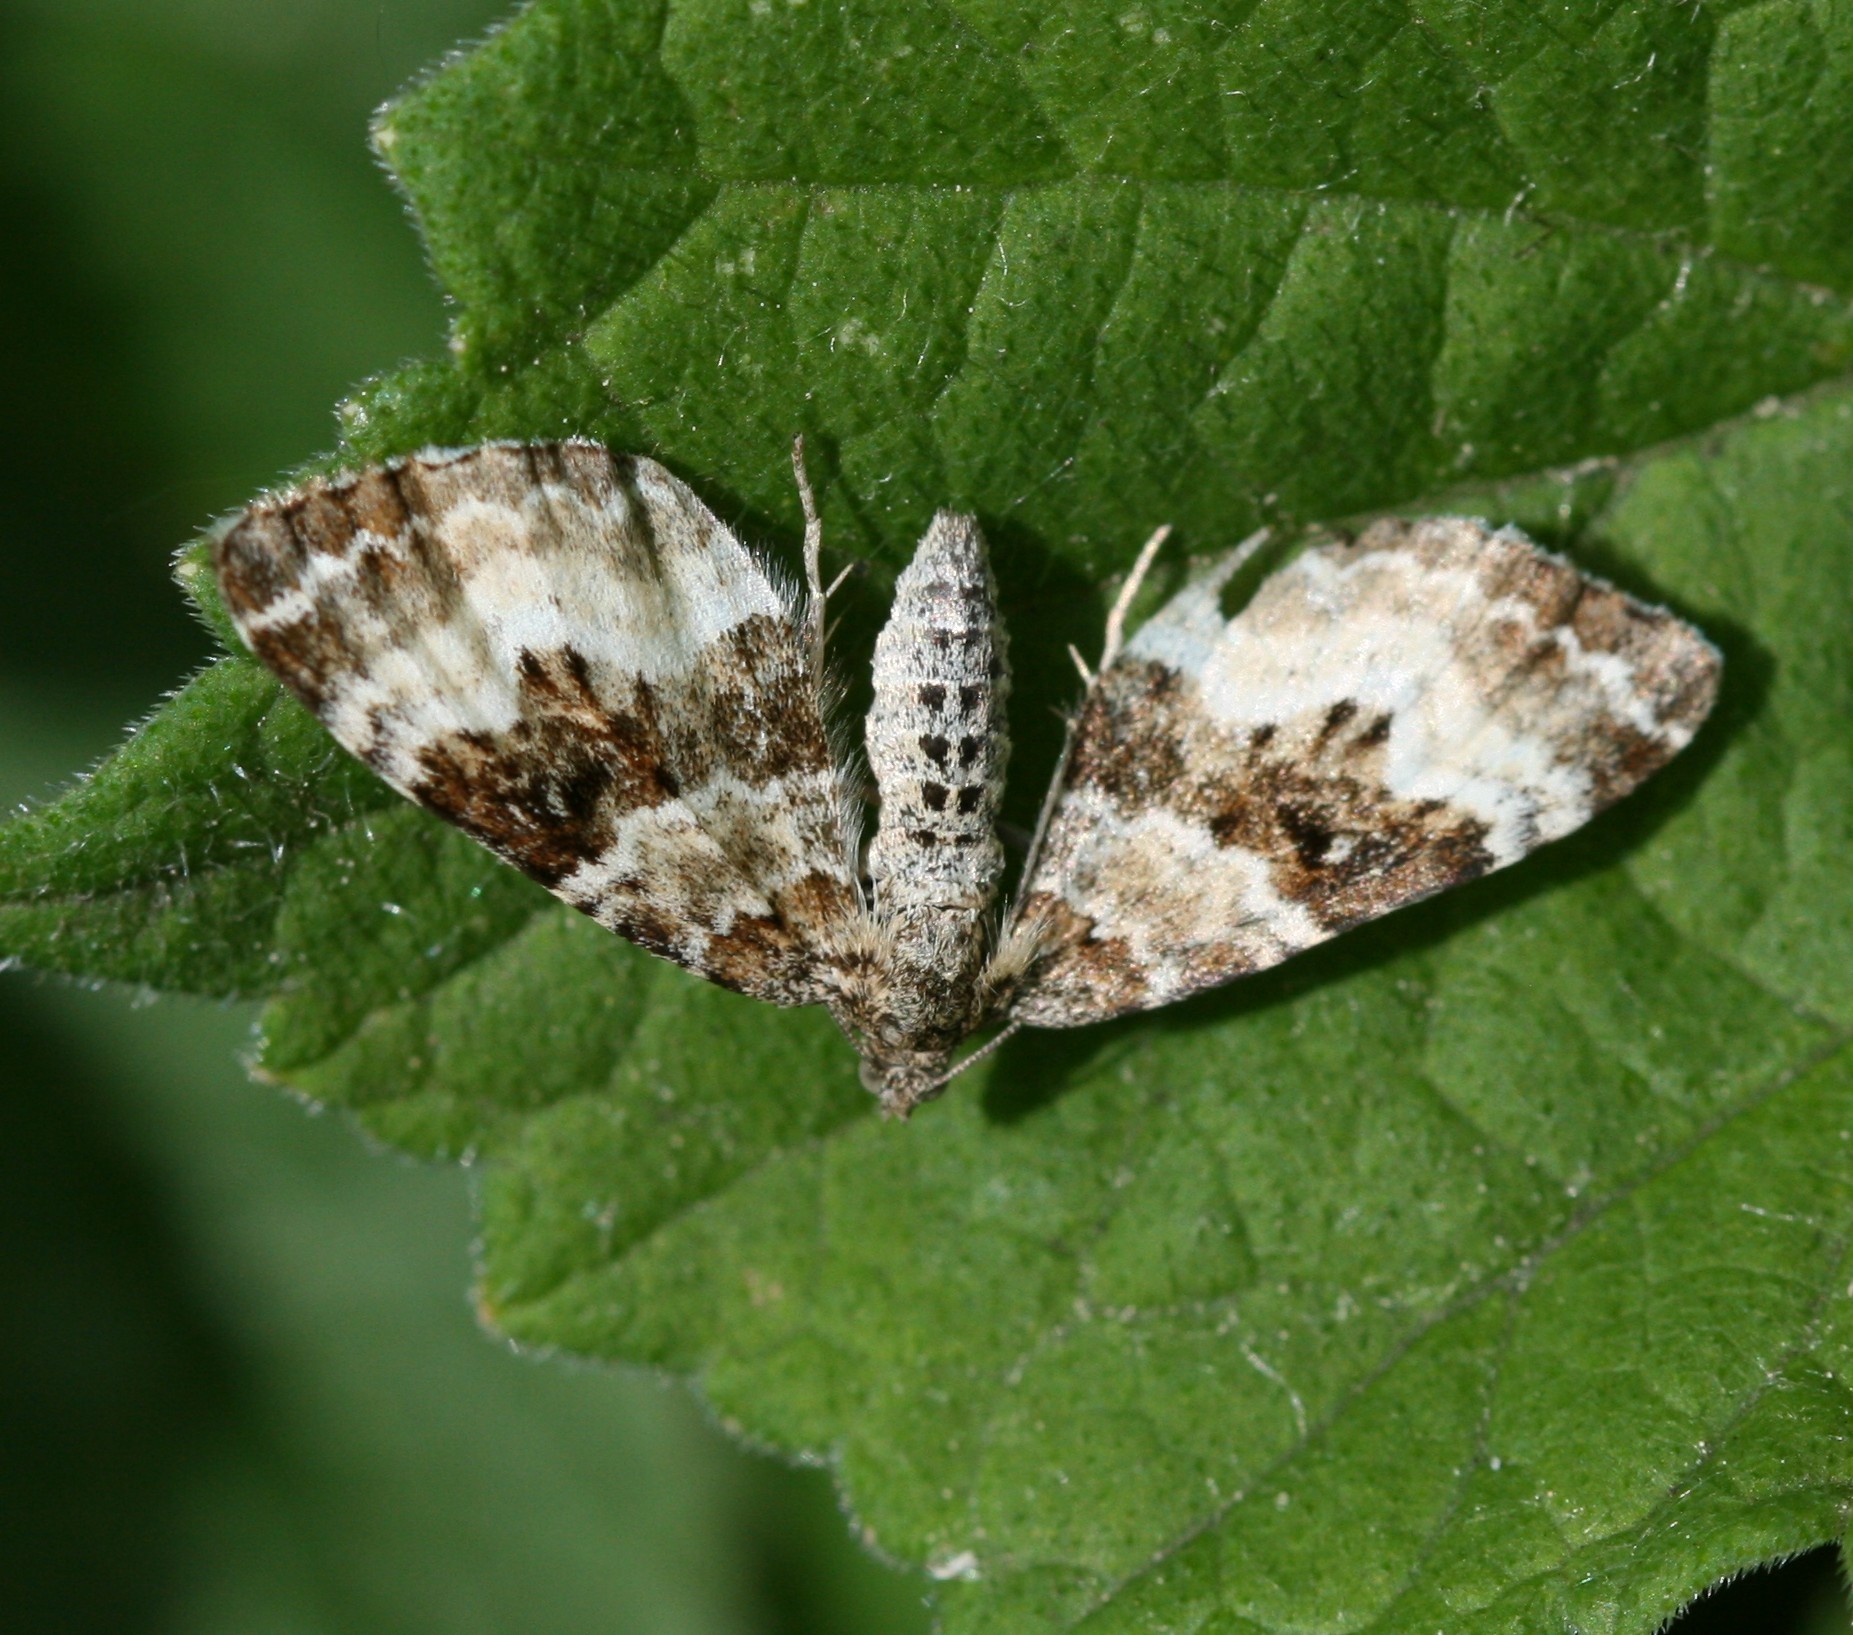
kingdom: Animalia
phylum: Arthropoda
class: Insecta
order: Lepidoptera
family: Geometridae
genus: Epirrhoe
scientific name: Epirrhoe alternata
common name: Common carpet
